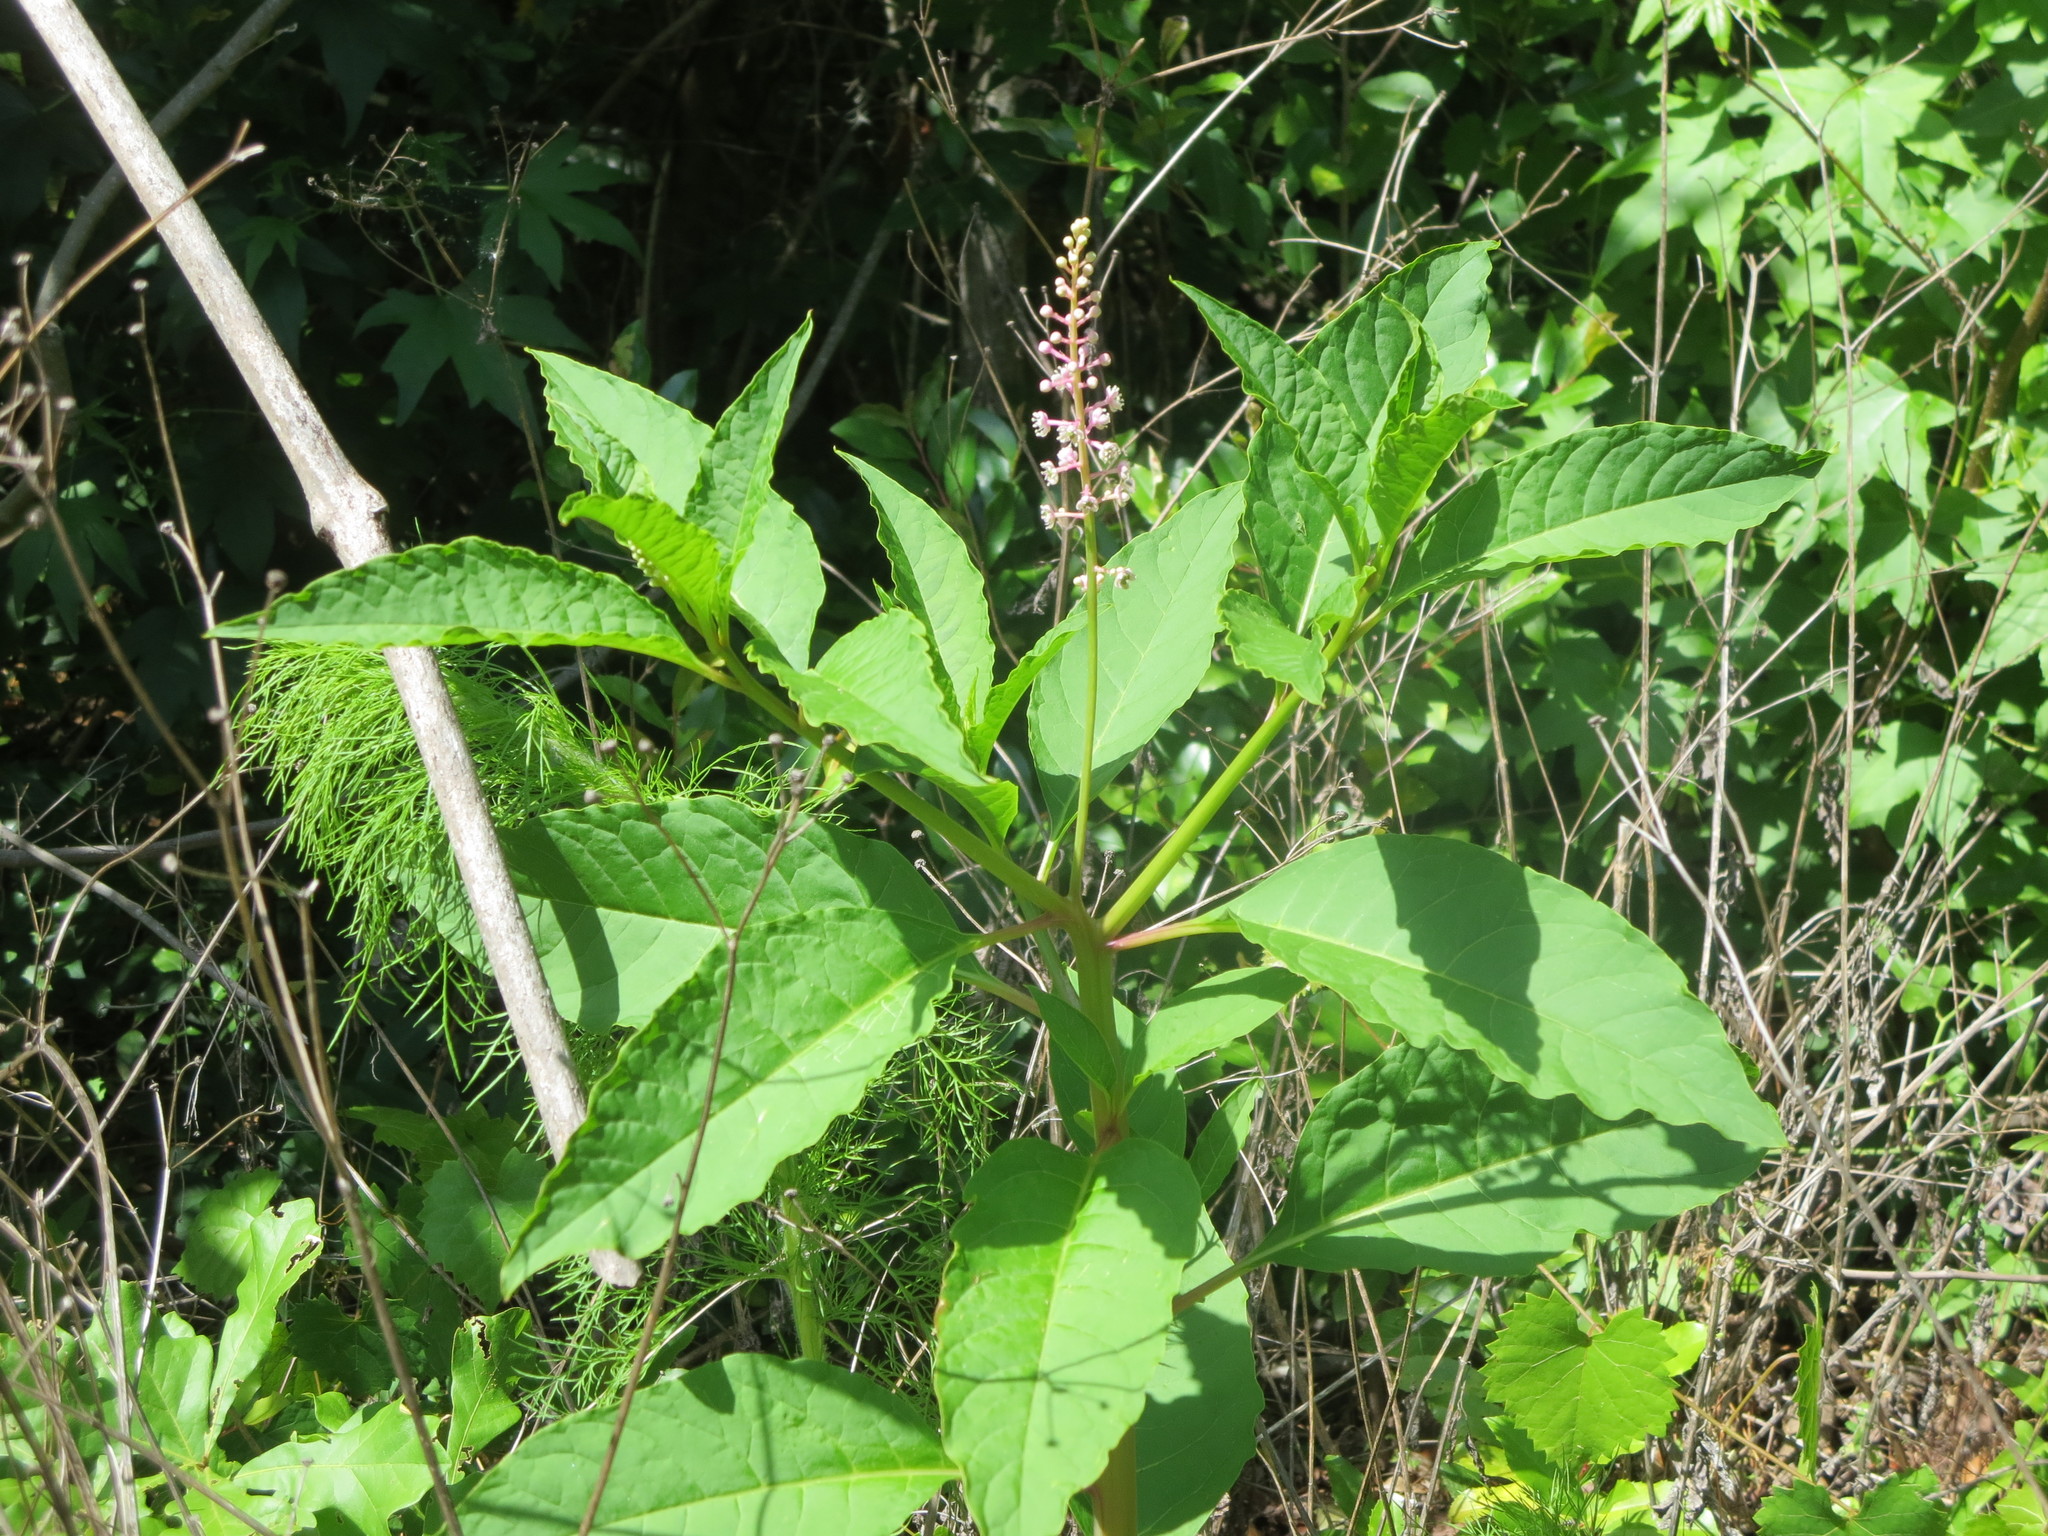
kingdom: Plantae
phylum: Tracheophyta
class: Magnoliopsida
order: Caryophyllales
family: Phytolaccaceae
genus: Phytolacca
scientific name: Phytolacca americana
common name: American pokeweed
